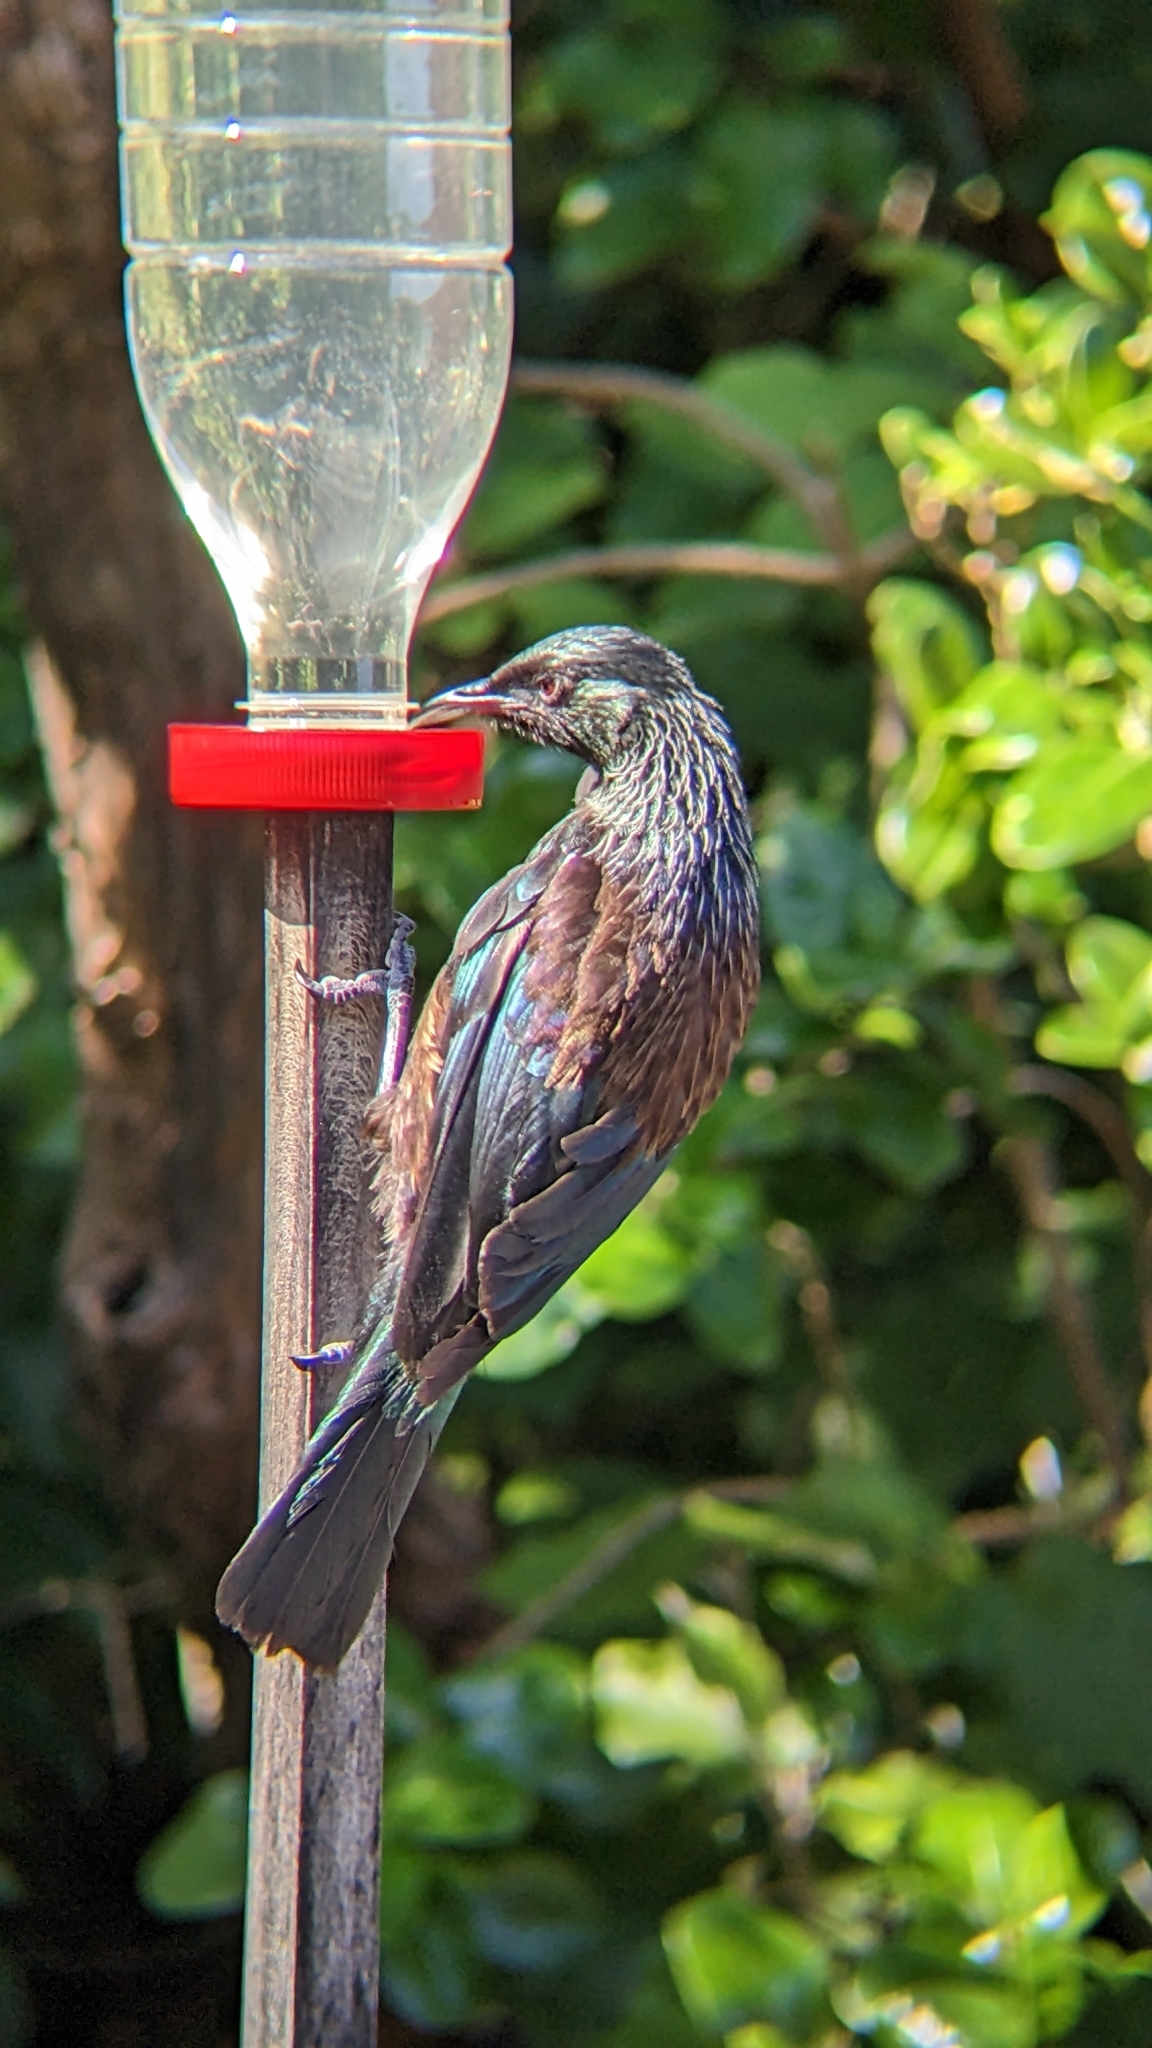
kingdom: Animalia
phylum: Chordata
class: Aves
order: Passeriformes
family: Meliphagidae
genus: Prosthemadera
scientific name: Prosthemadera novaeseelandiae
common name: Tui
